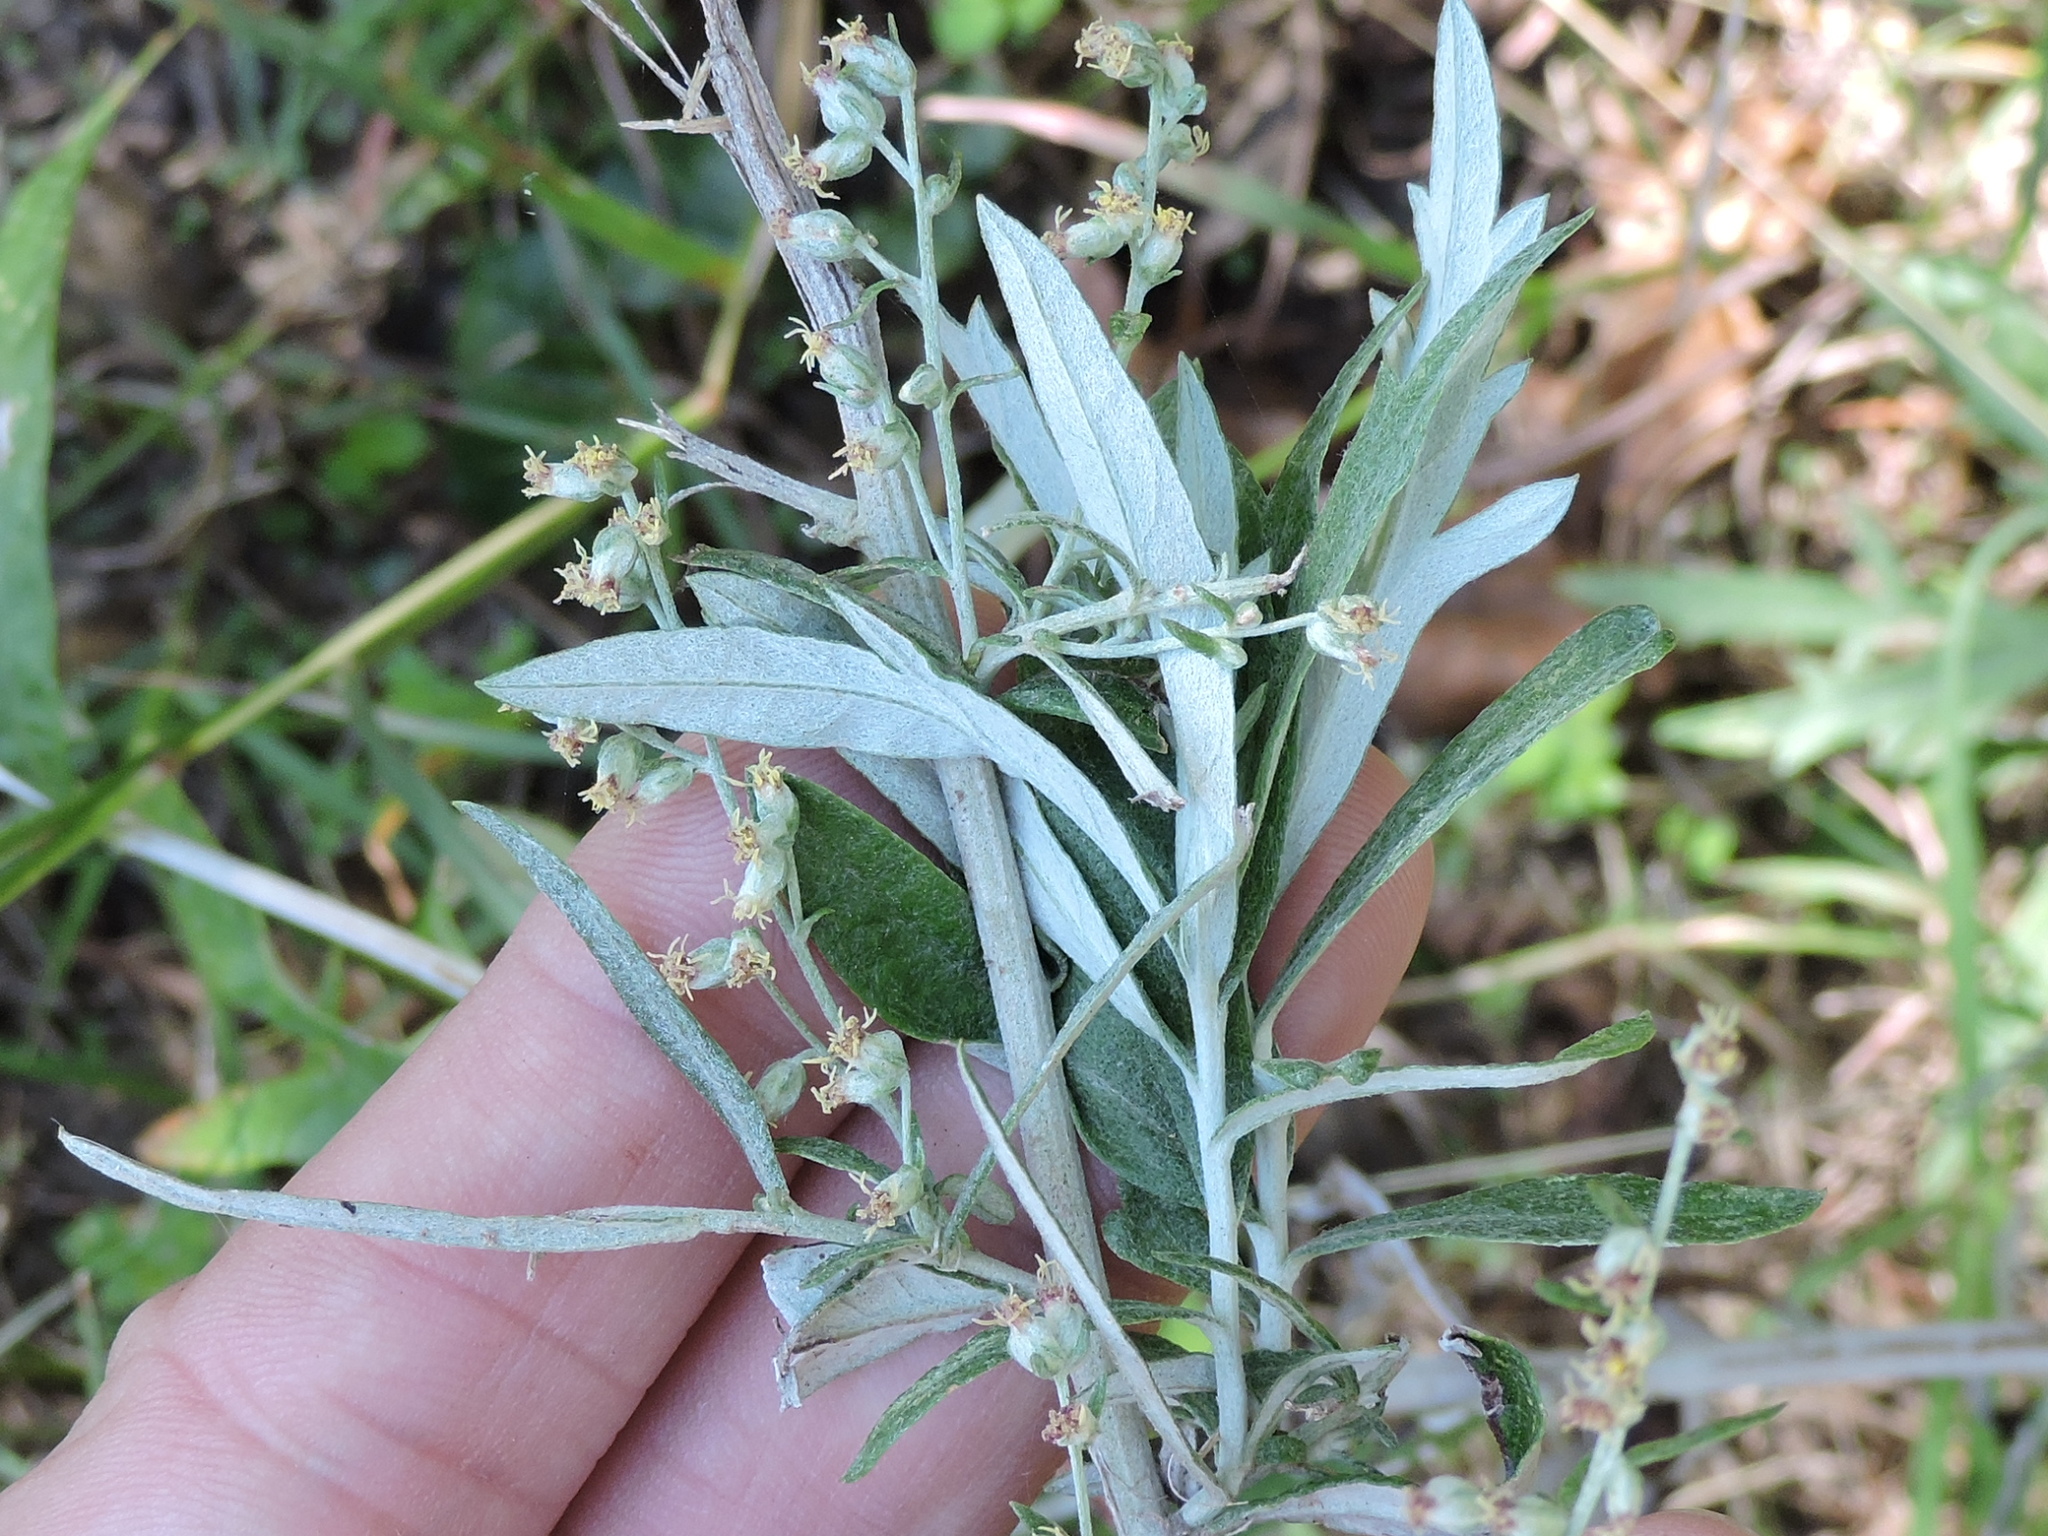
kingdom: Plantae
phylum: Tracheophyta
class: Magnoliopsida
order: Asterales
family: Asteraceae
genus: Artemisia
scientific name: Artemisia ludoviciana
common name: Western mugwort
